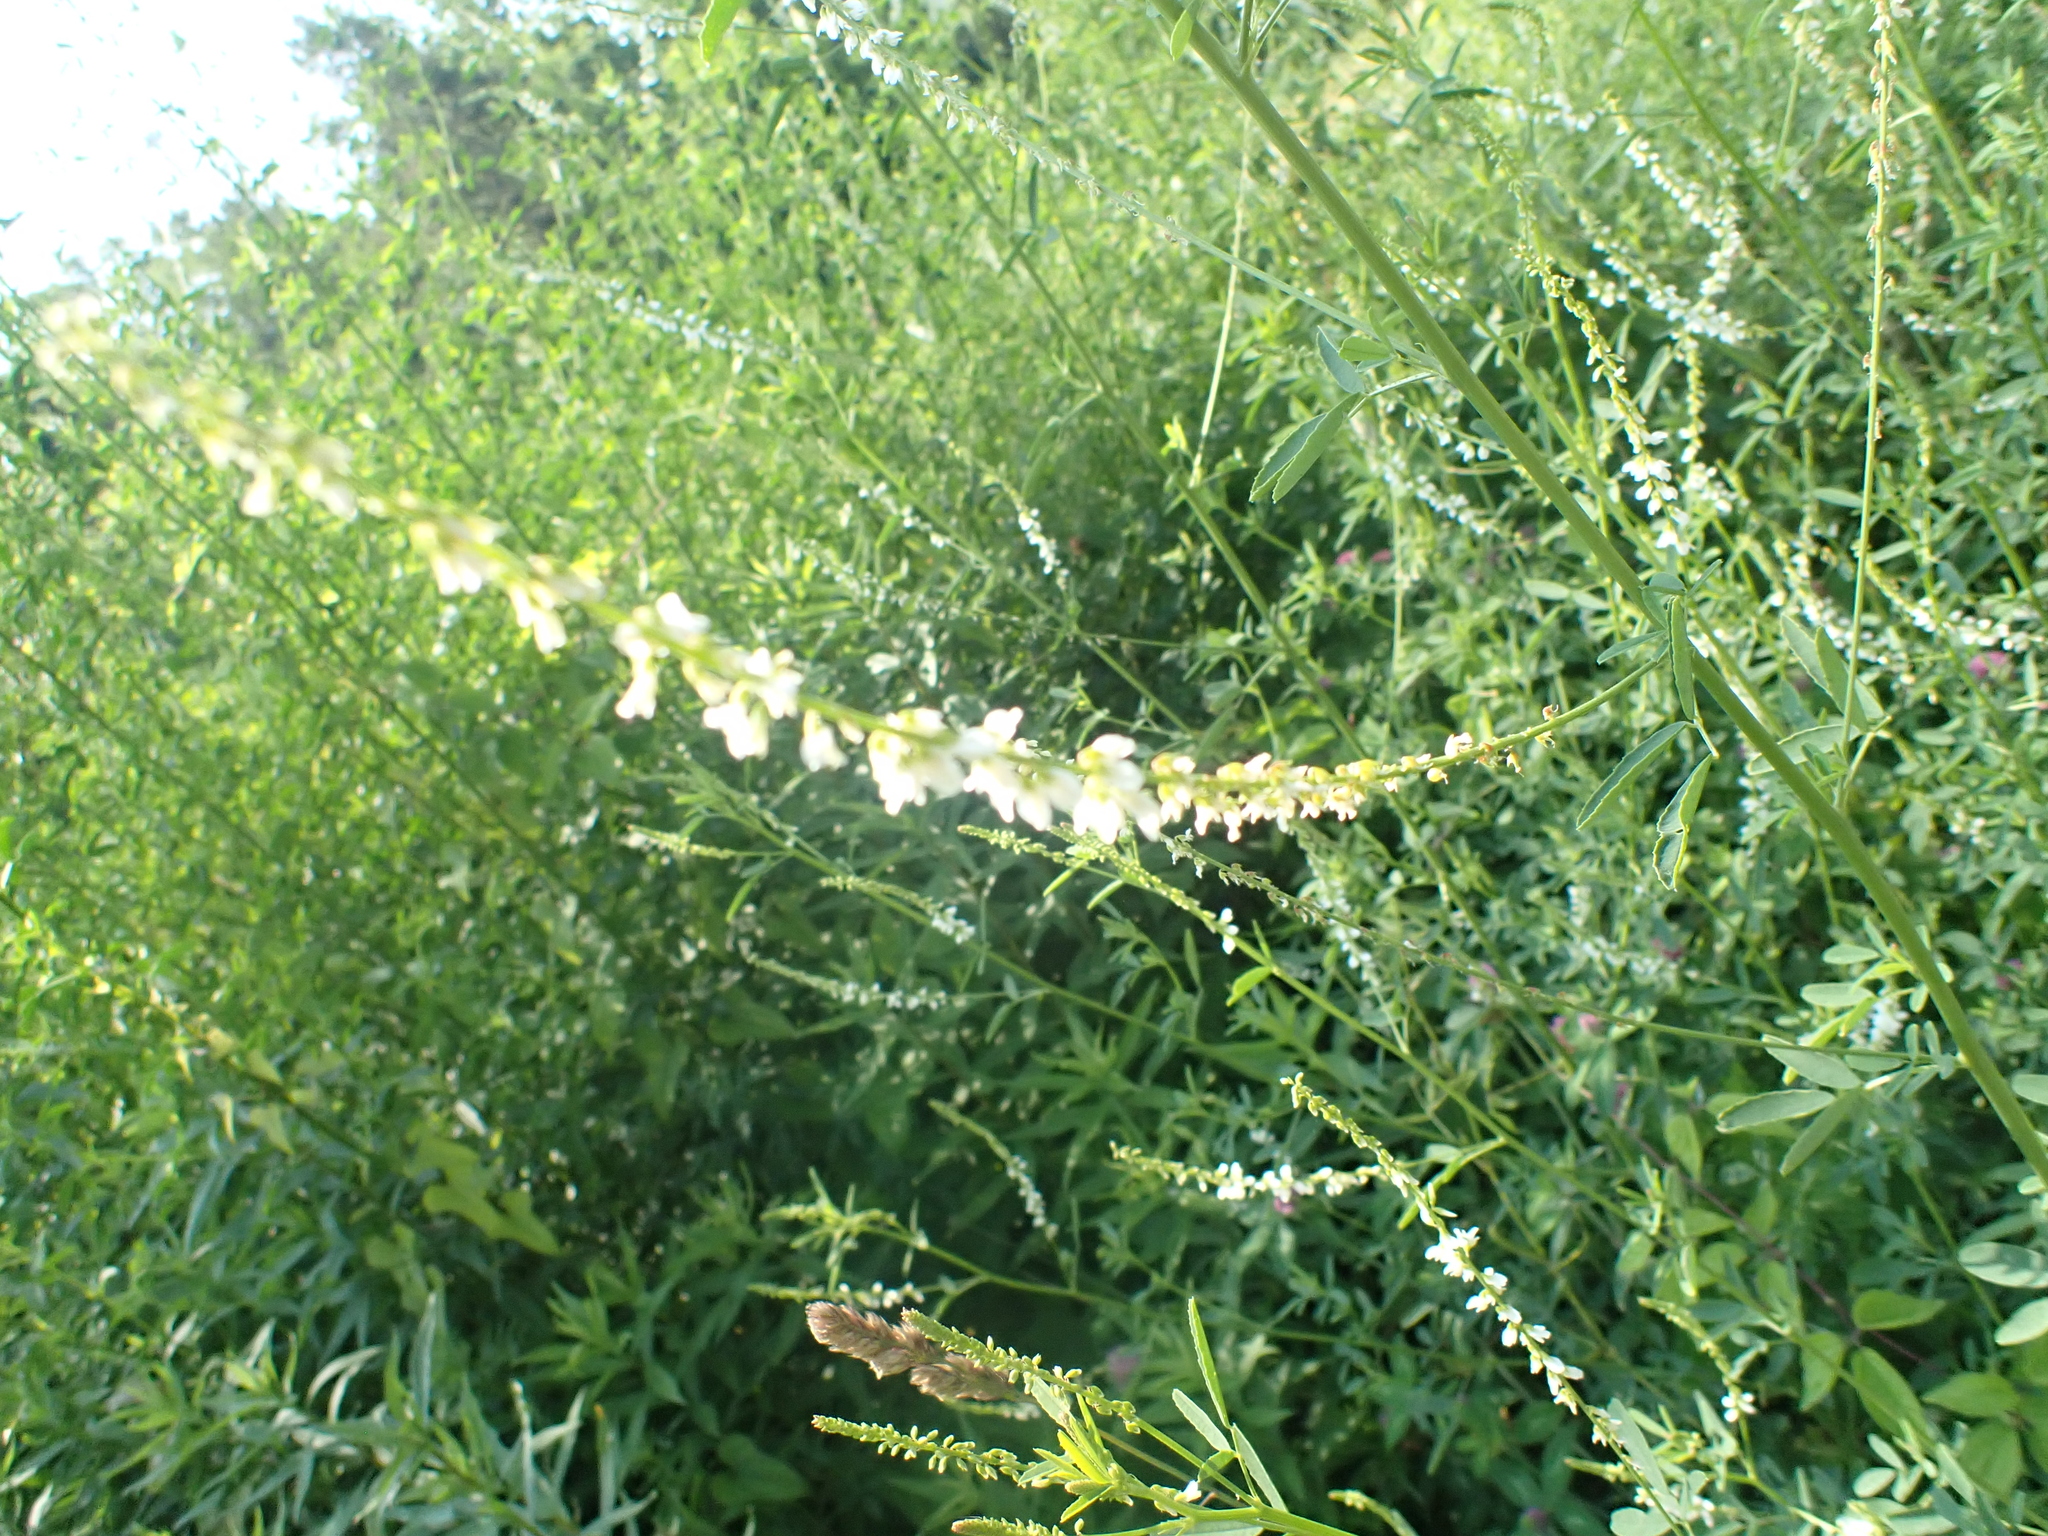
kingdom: Plantae
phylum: Tracheophyta
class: Magnoliopsida
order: Fabales
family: Fabaceae
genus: Melilotus
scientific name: Melilotus albus
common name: White melilot
